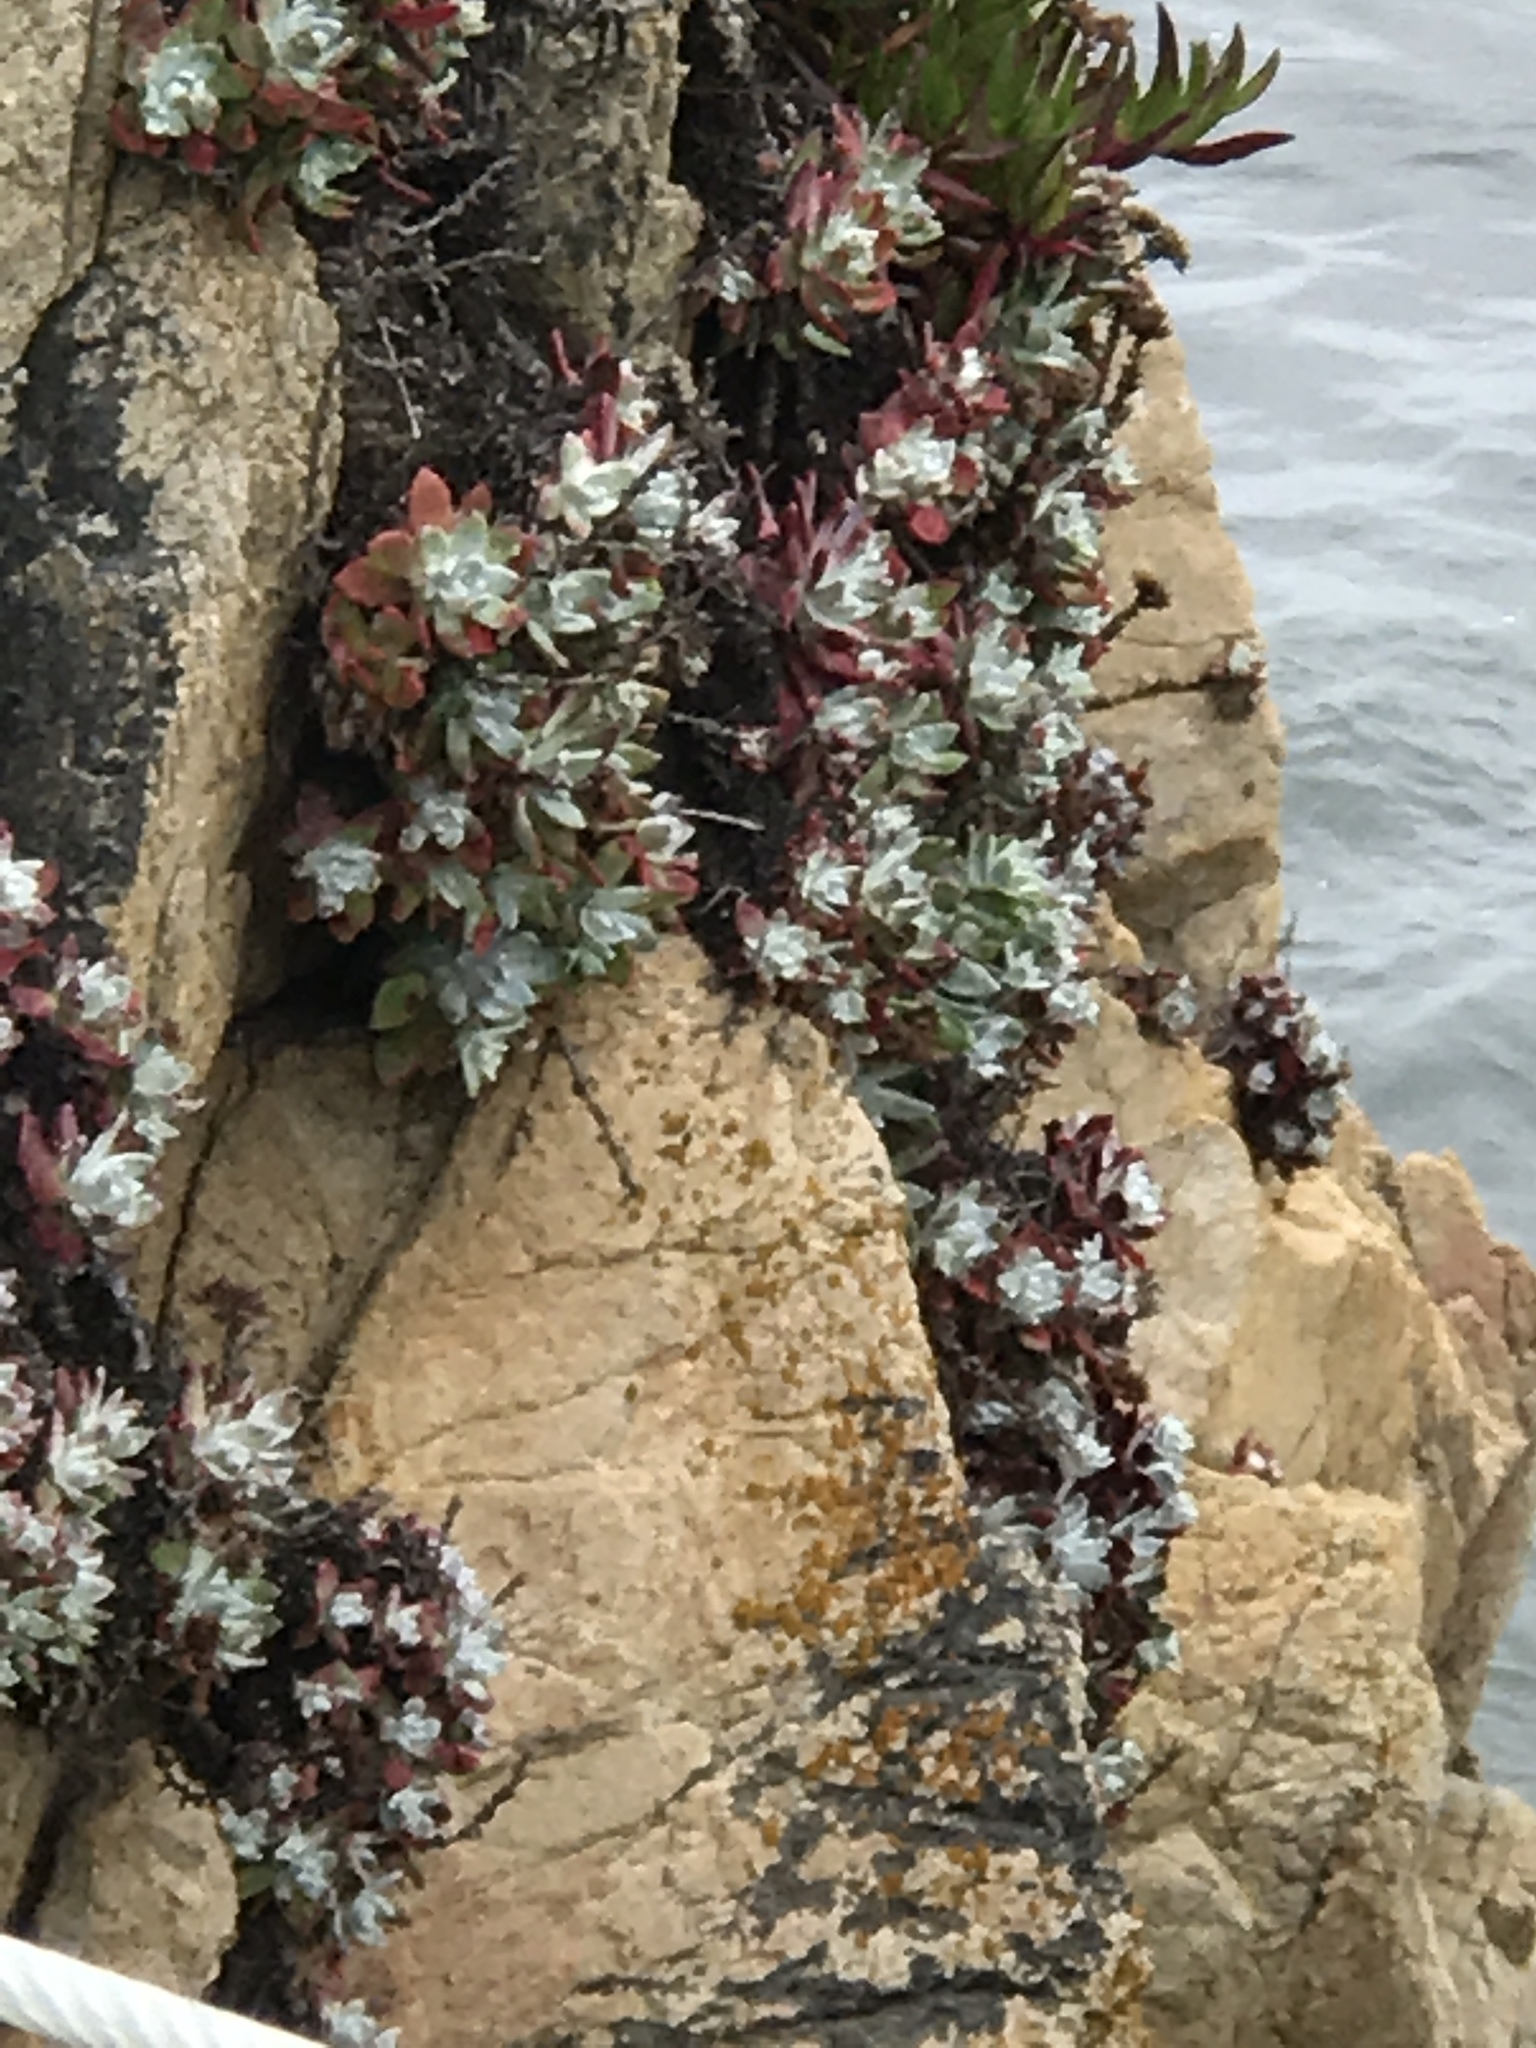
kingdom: Plantae
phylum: Tracheophyta
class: Magnoliopsida
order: Saxifragales
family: Crassulaceae
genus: Dudleya
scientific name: Dudleya farinosa
